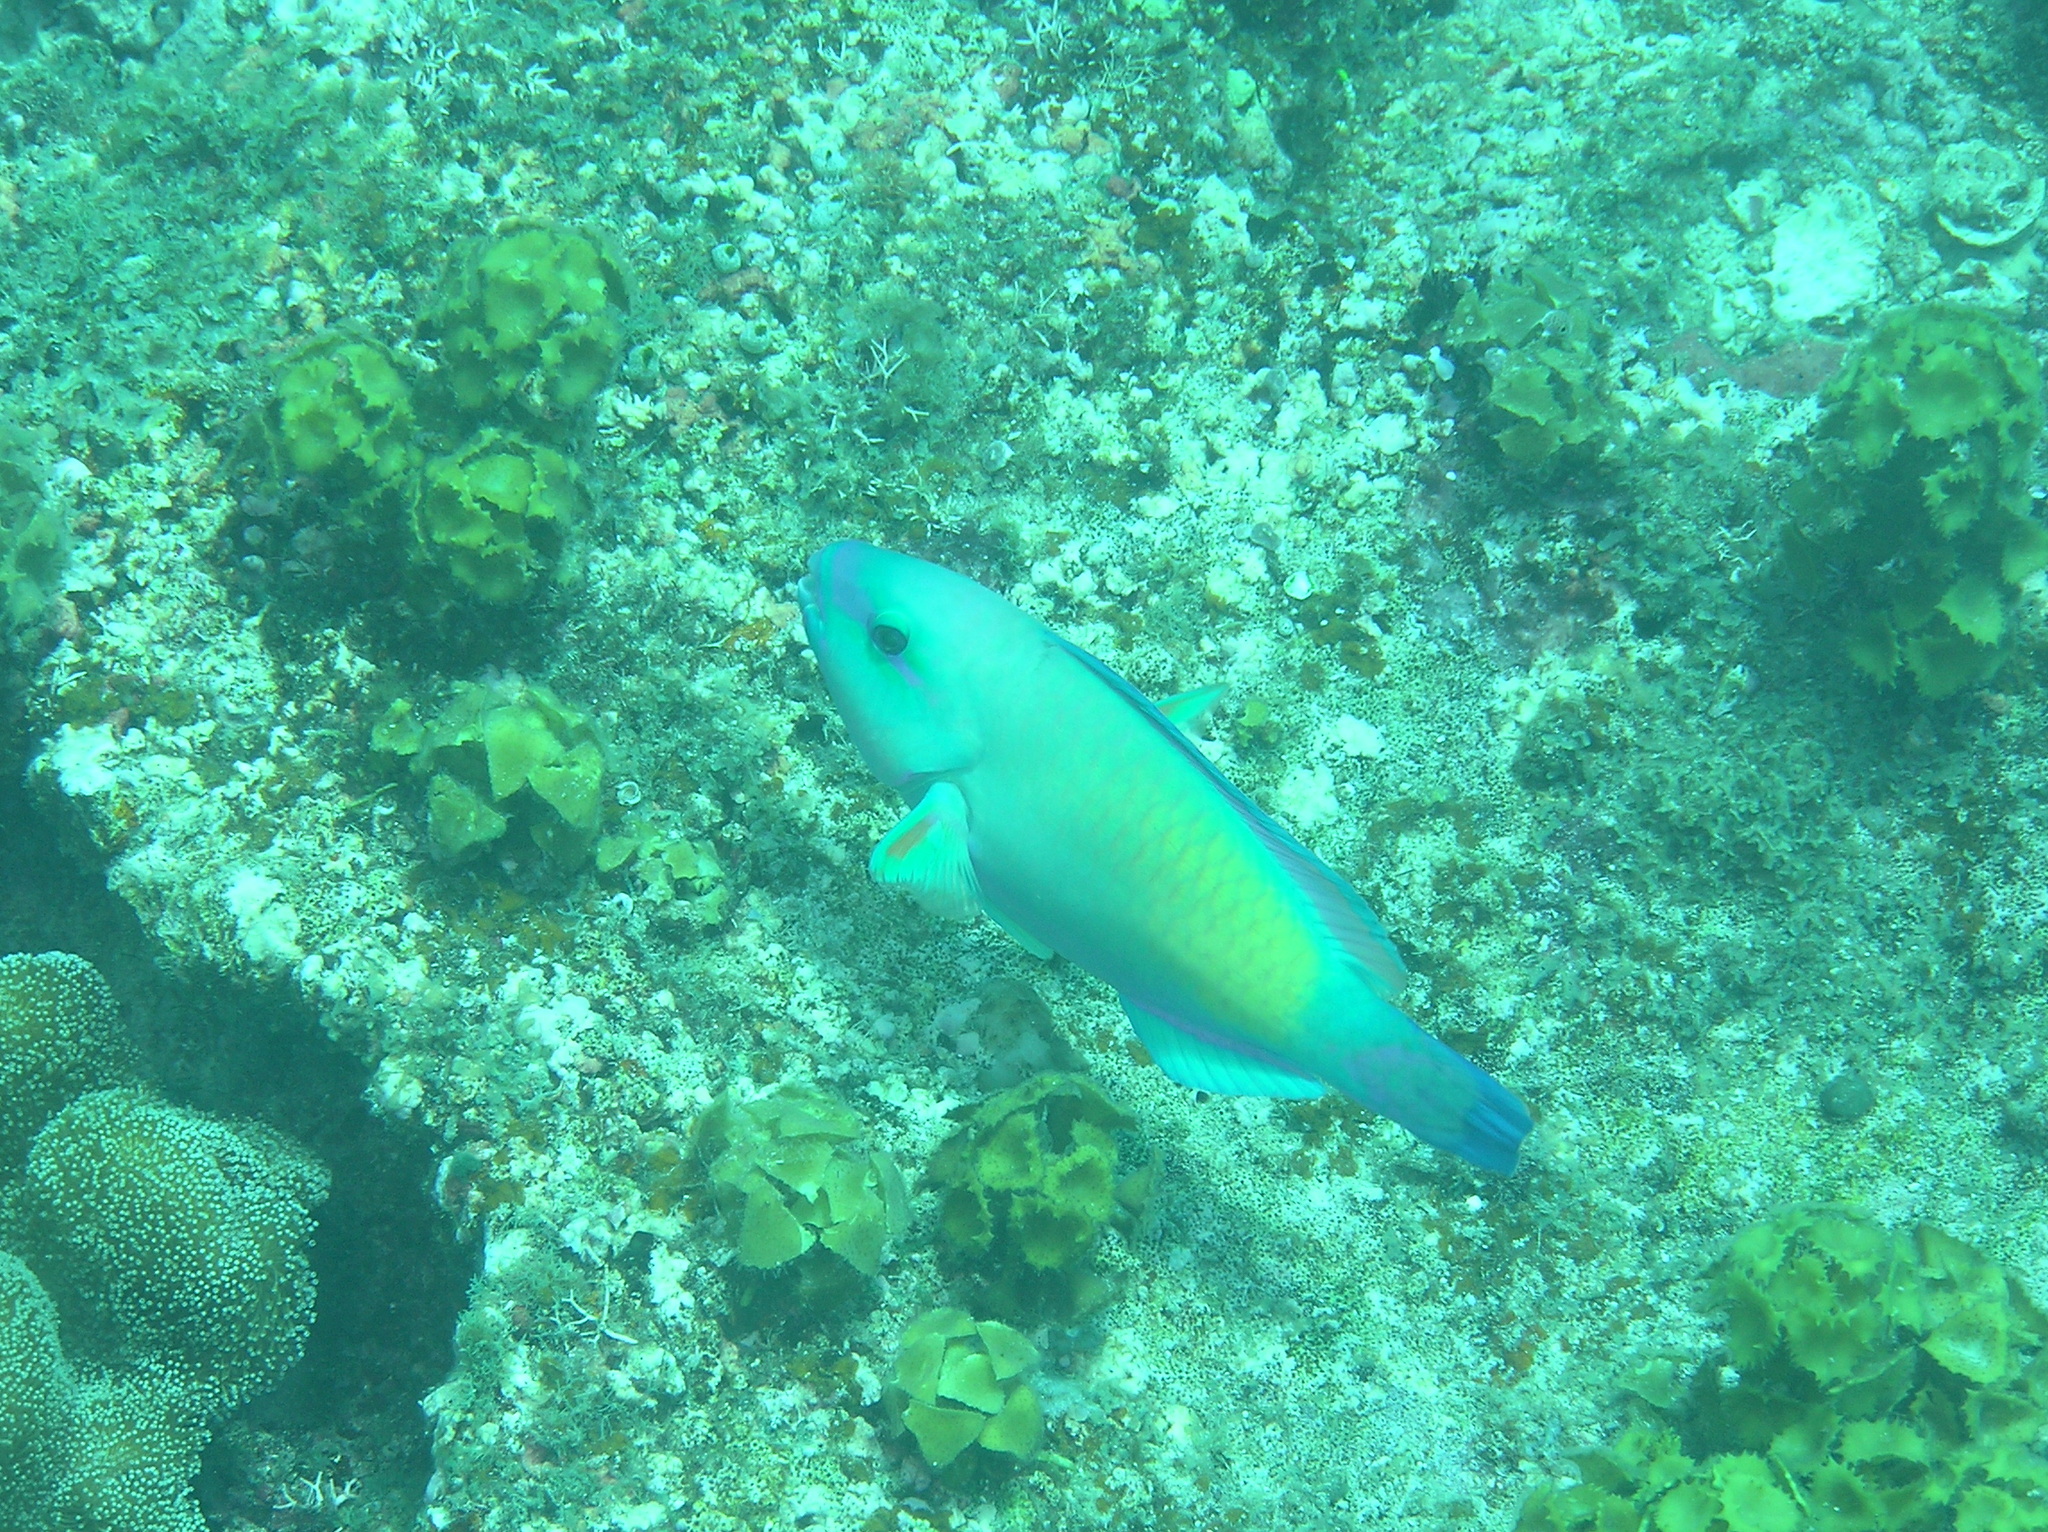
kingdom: Animalia
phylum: Chordata
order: Perciformes
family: Scaridae
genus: Chlorurus
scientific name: Chlorurus spilurus
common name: Bullethead parrotfish
